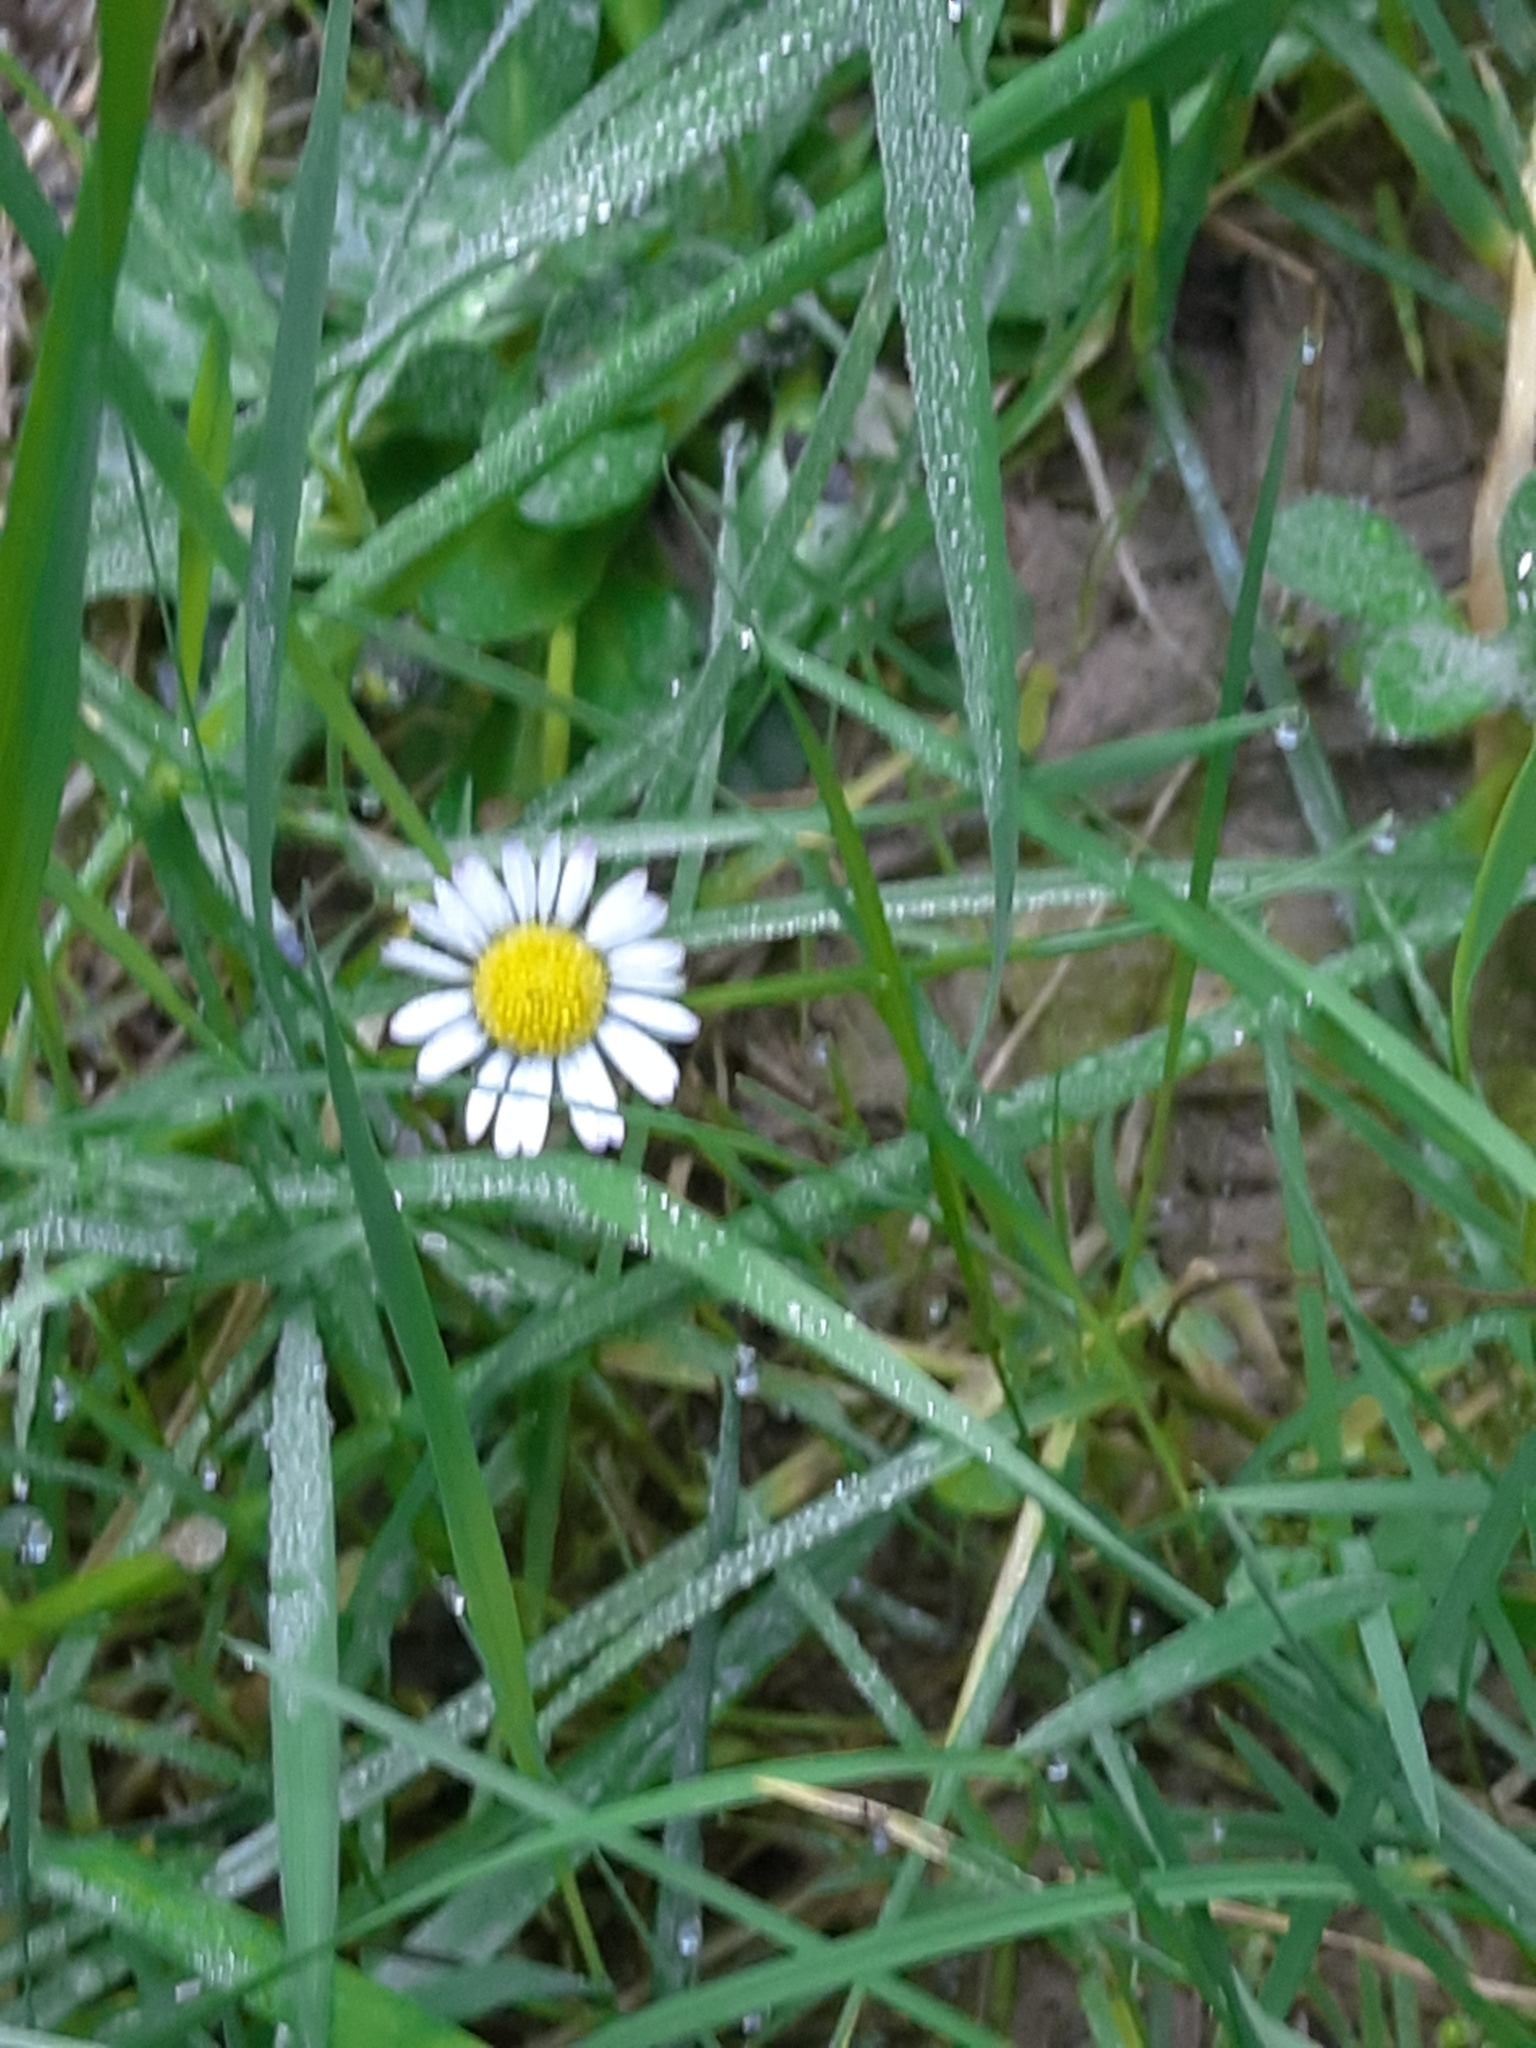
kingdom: Plantae
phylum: Tracheophyta
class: Magnoliopsida
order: Asterales
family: Asteraceae
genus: Bellis
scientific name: Bellis perennis
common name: Lawndaisy
